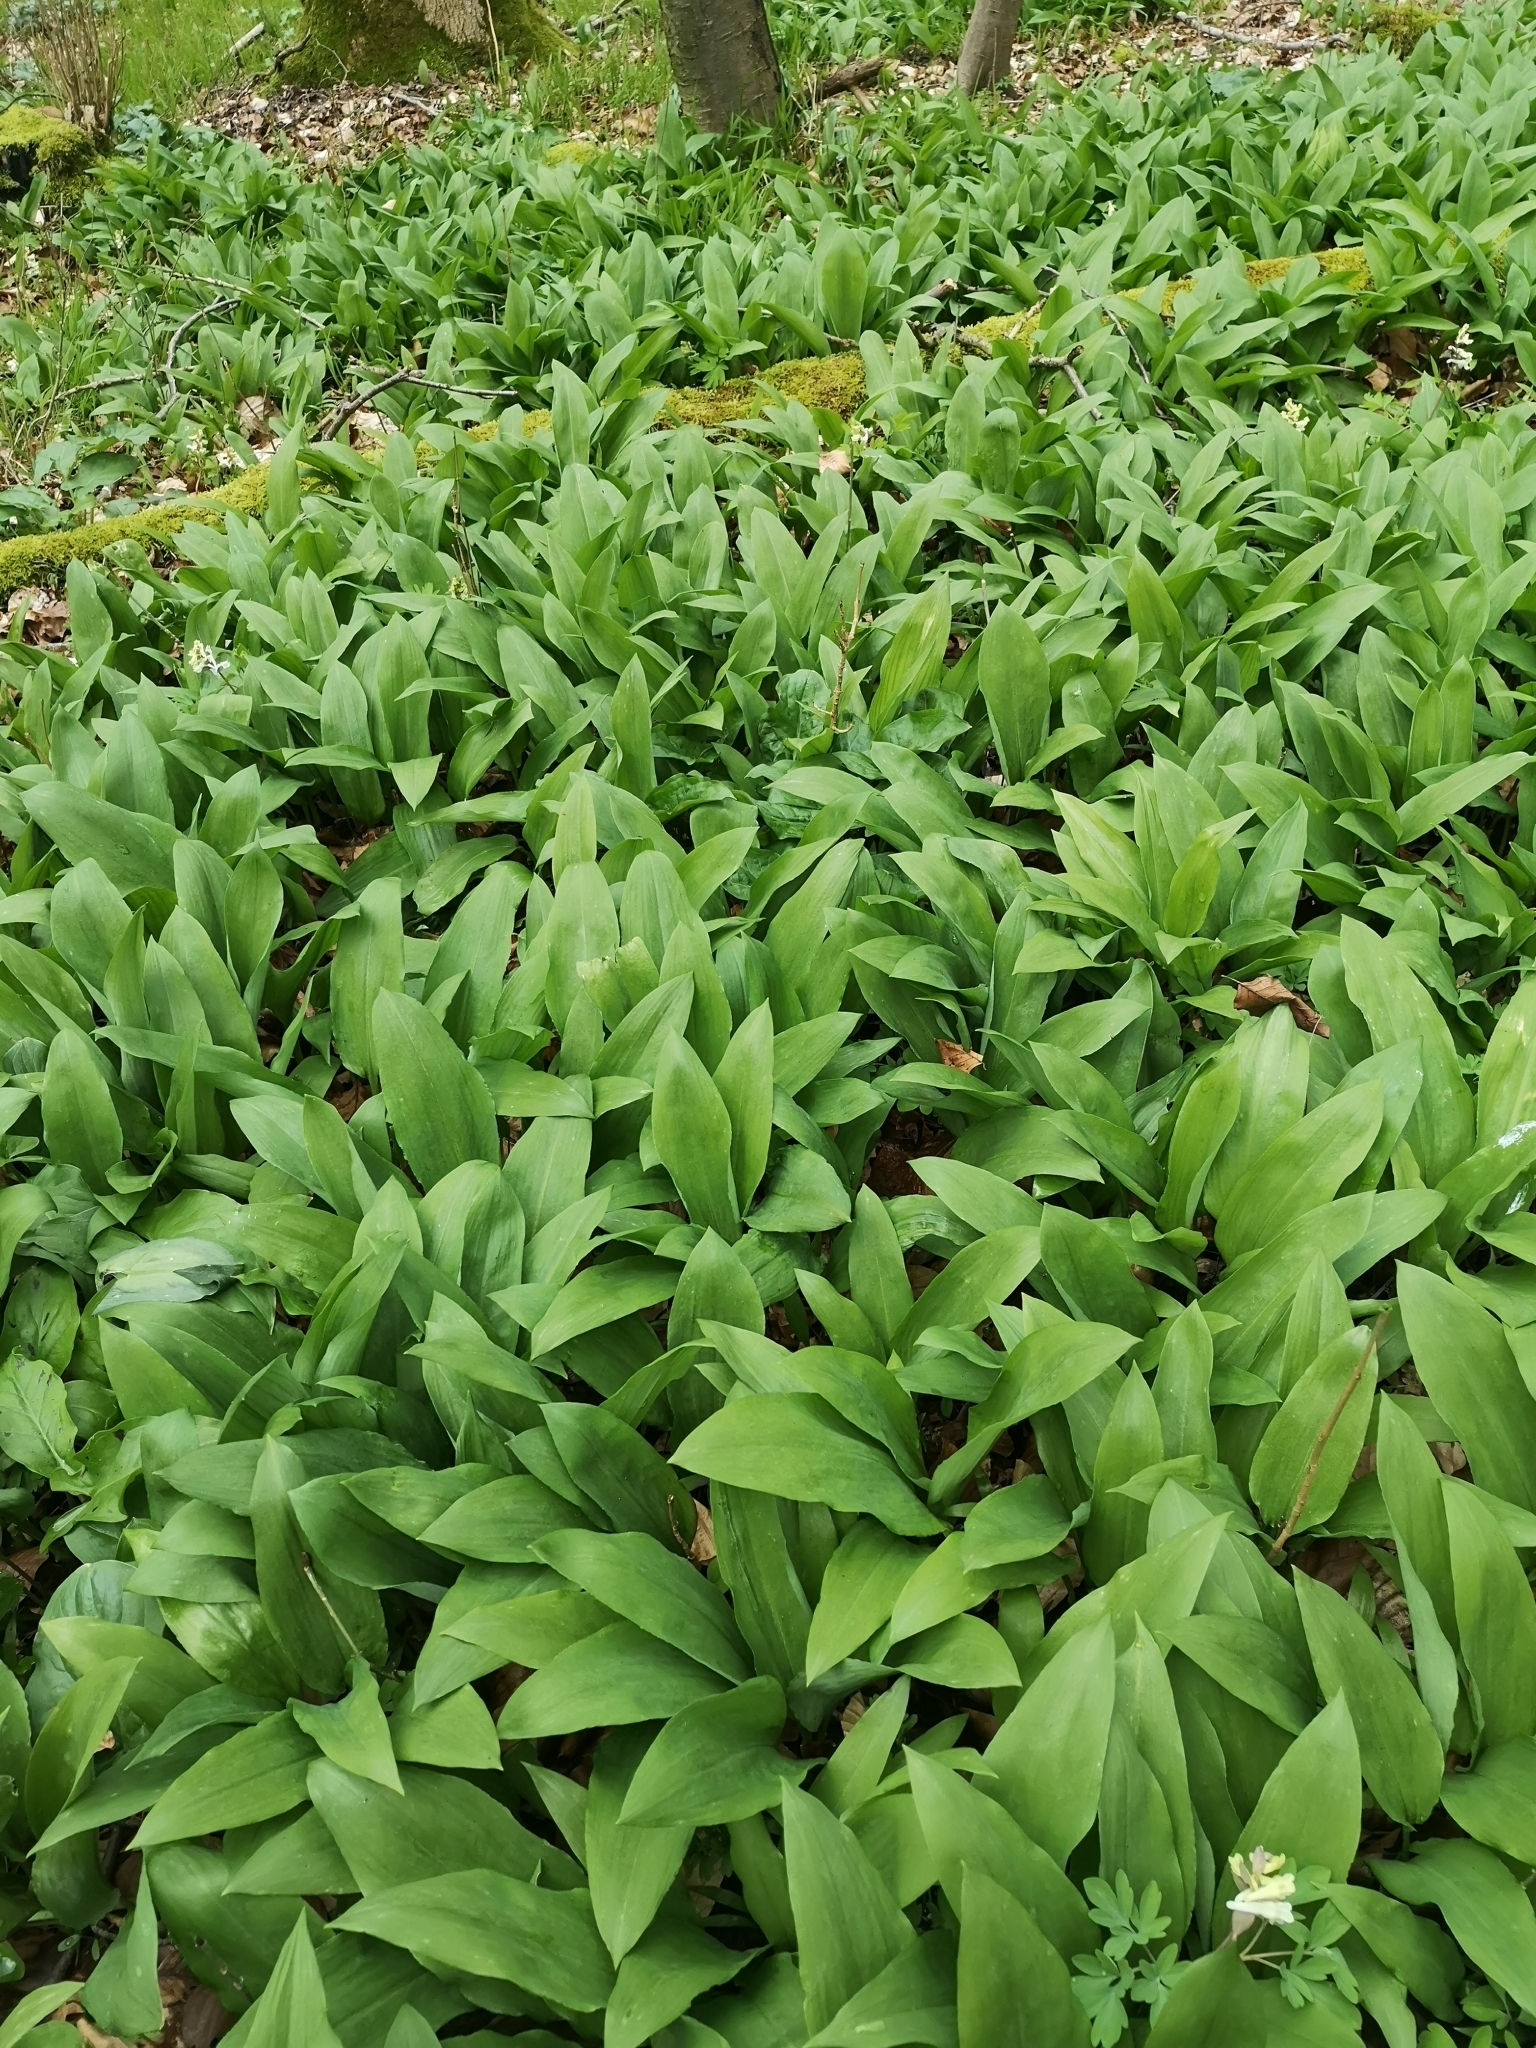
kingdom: Plantae
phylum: Tracheophyta
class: Liliopsida
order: Asparagales
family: Amaryllidaceae
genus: Allium
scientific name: Allium ursinum
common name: Ramsons
